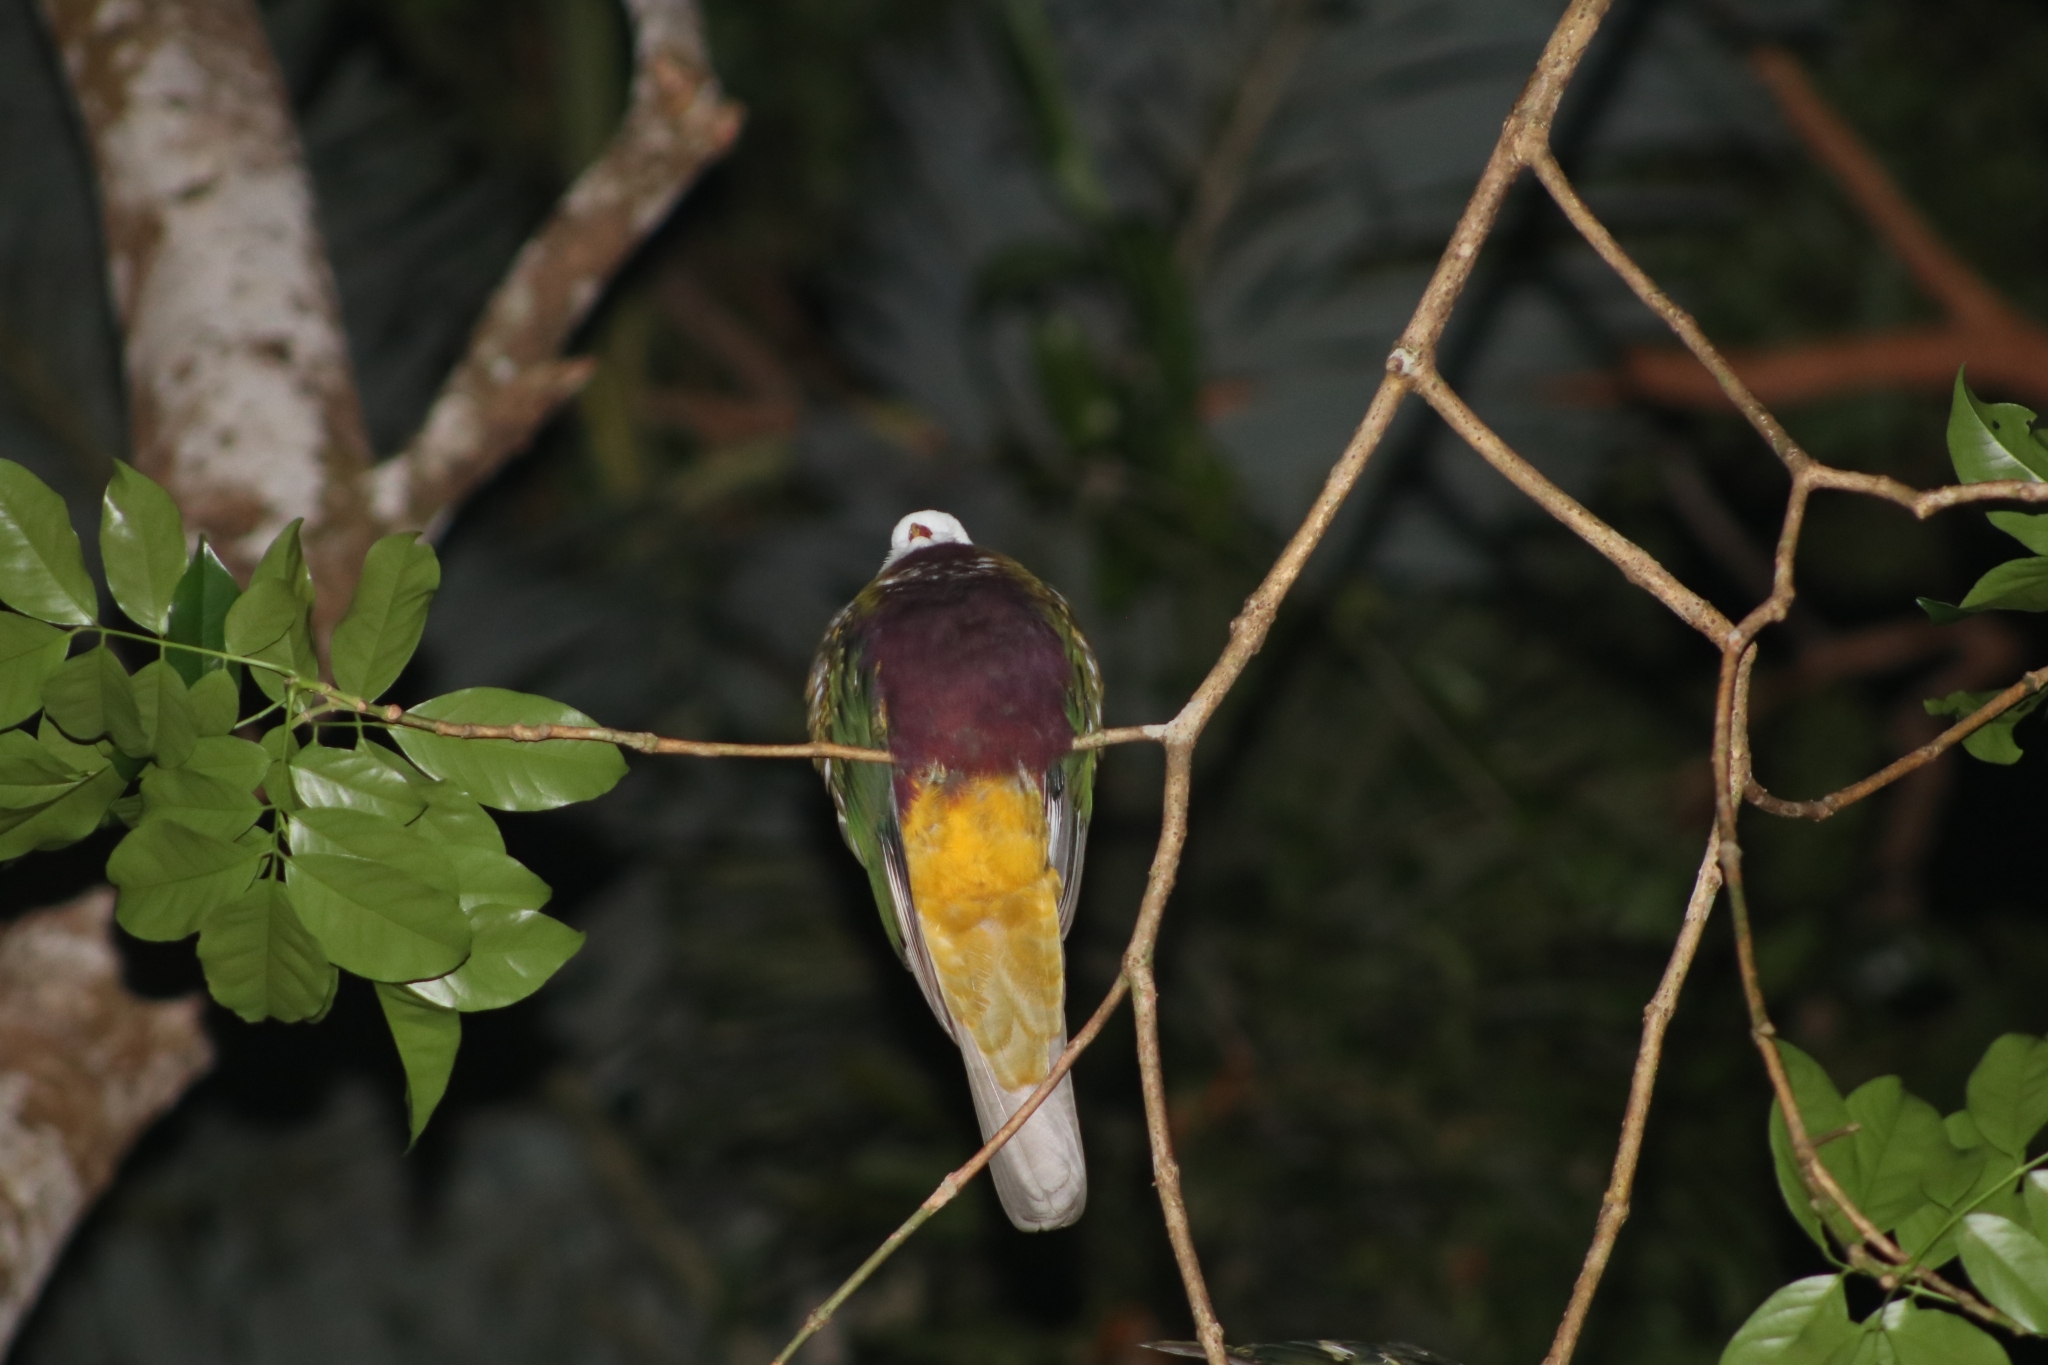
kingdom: Animalia
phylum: Chordata
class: Aves
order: Columbiformes
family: Columbidae
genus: Ptilinopus
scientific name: Ptilinopus magnificus
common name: Wompoo fruit dove
